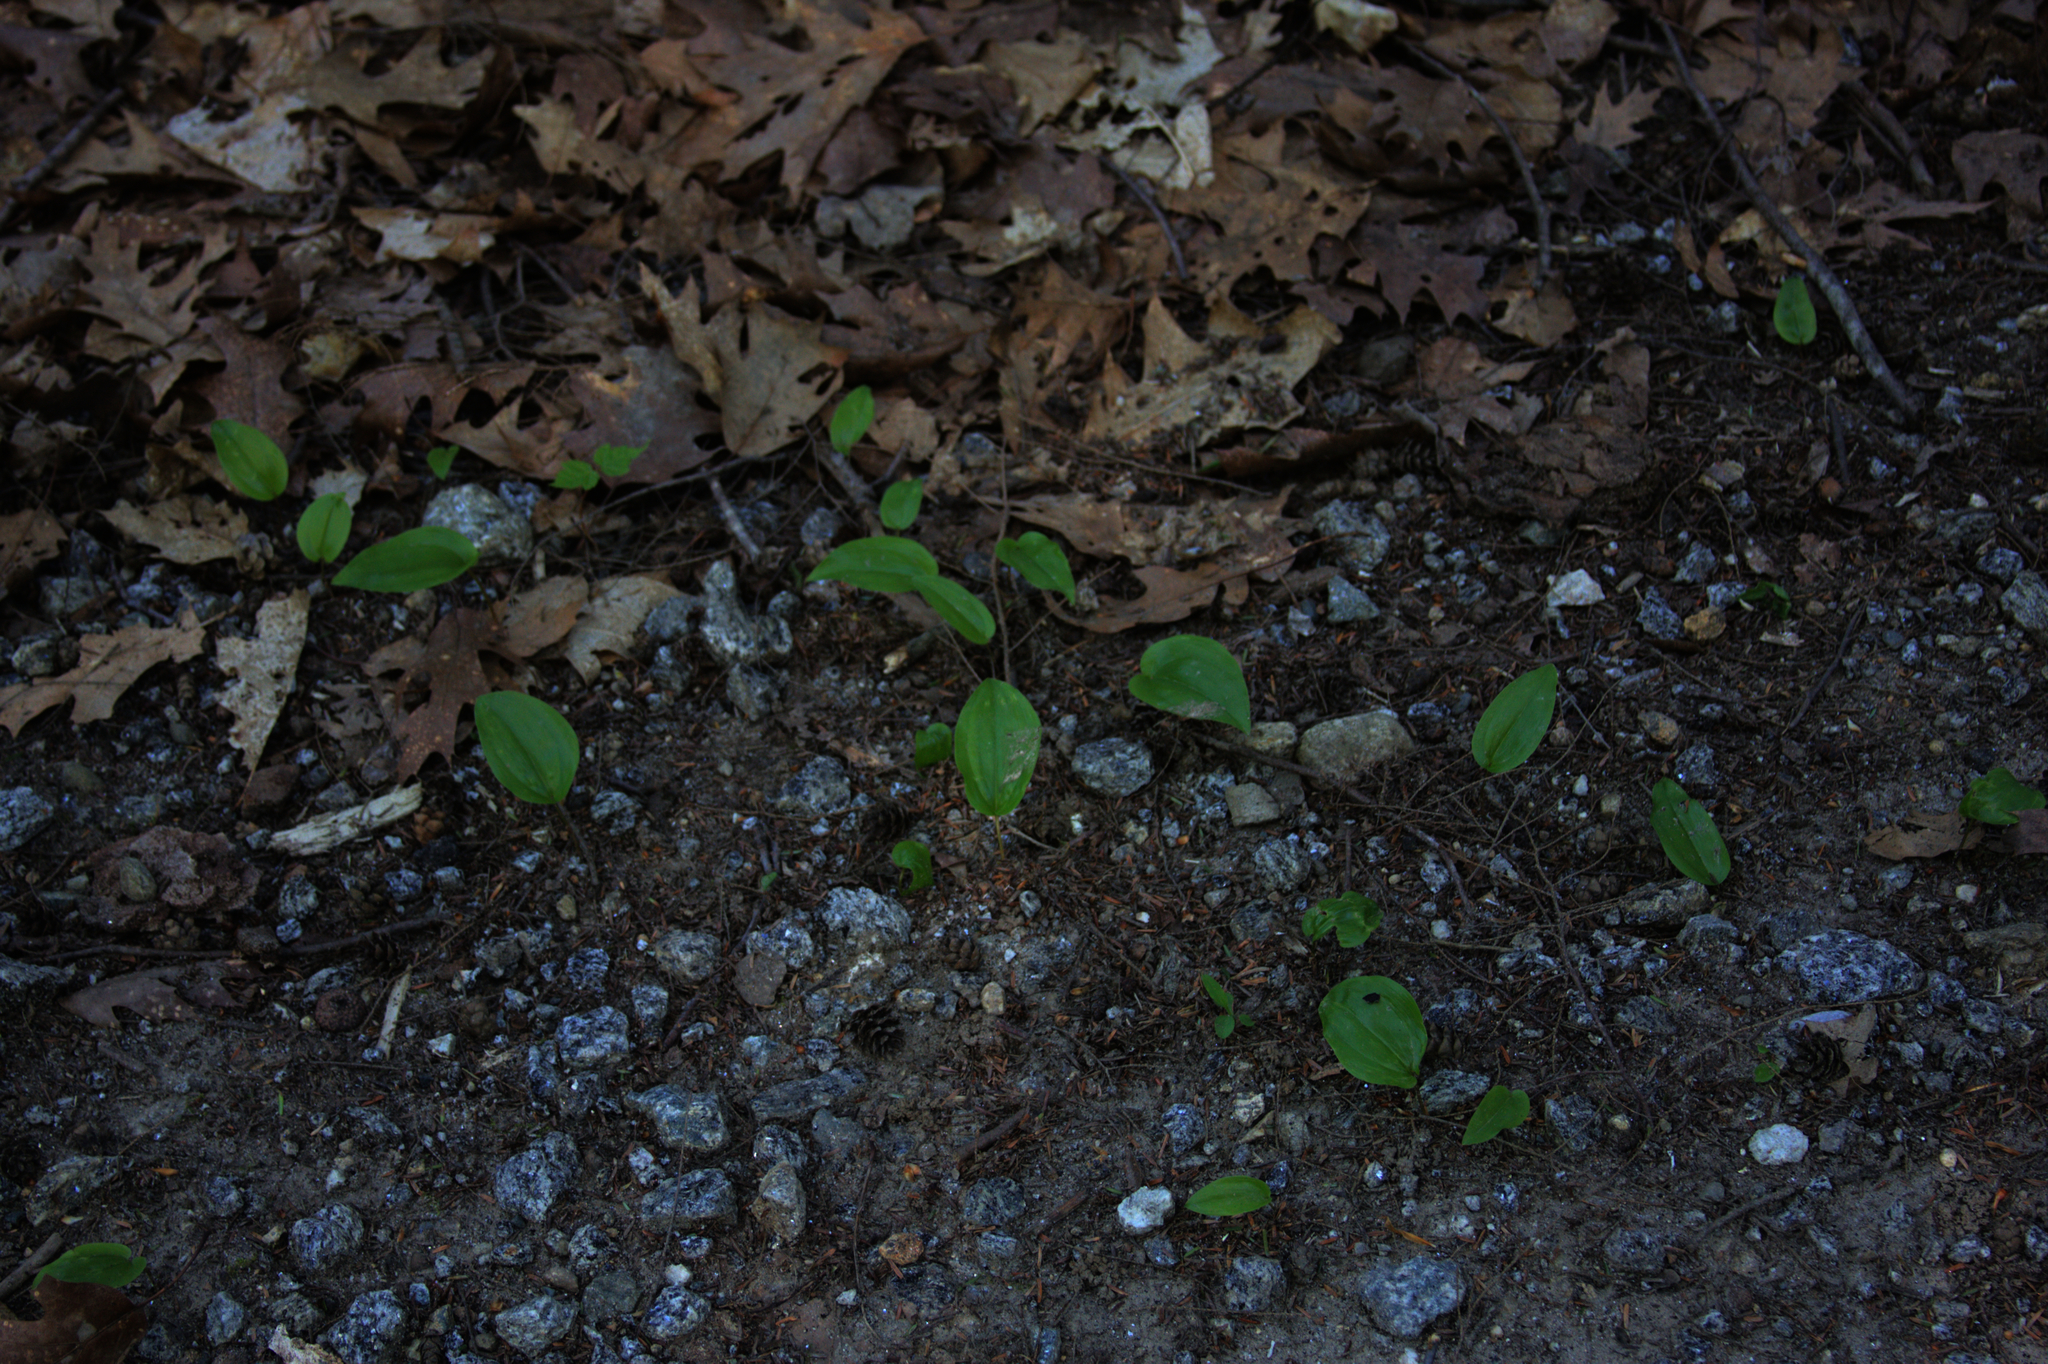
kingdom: Plantae
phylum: Tracheophyta
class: Liliopsida
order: Asparagales
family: Asparagaceae
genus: Maianthemum
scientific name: Maianthemum canadense
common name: False lily-of-the-valley
